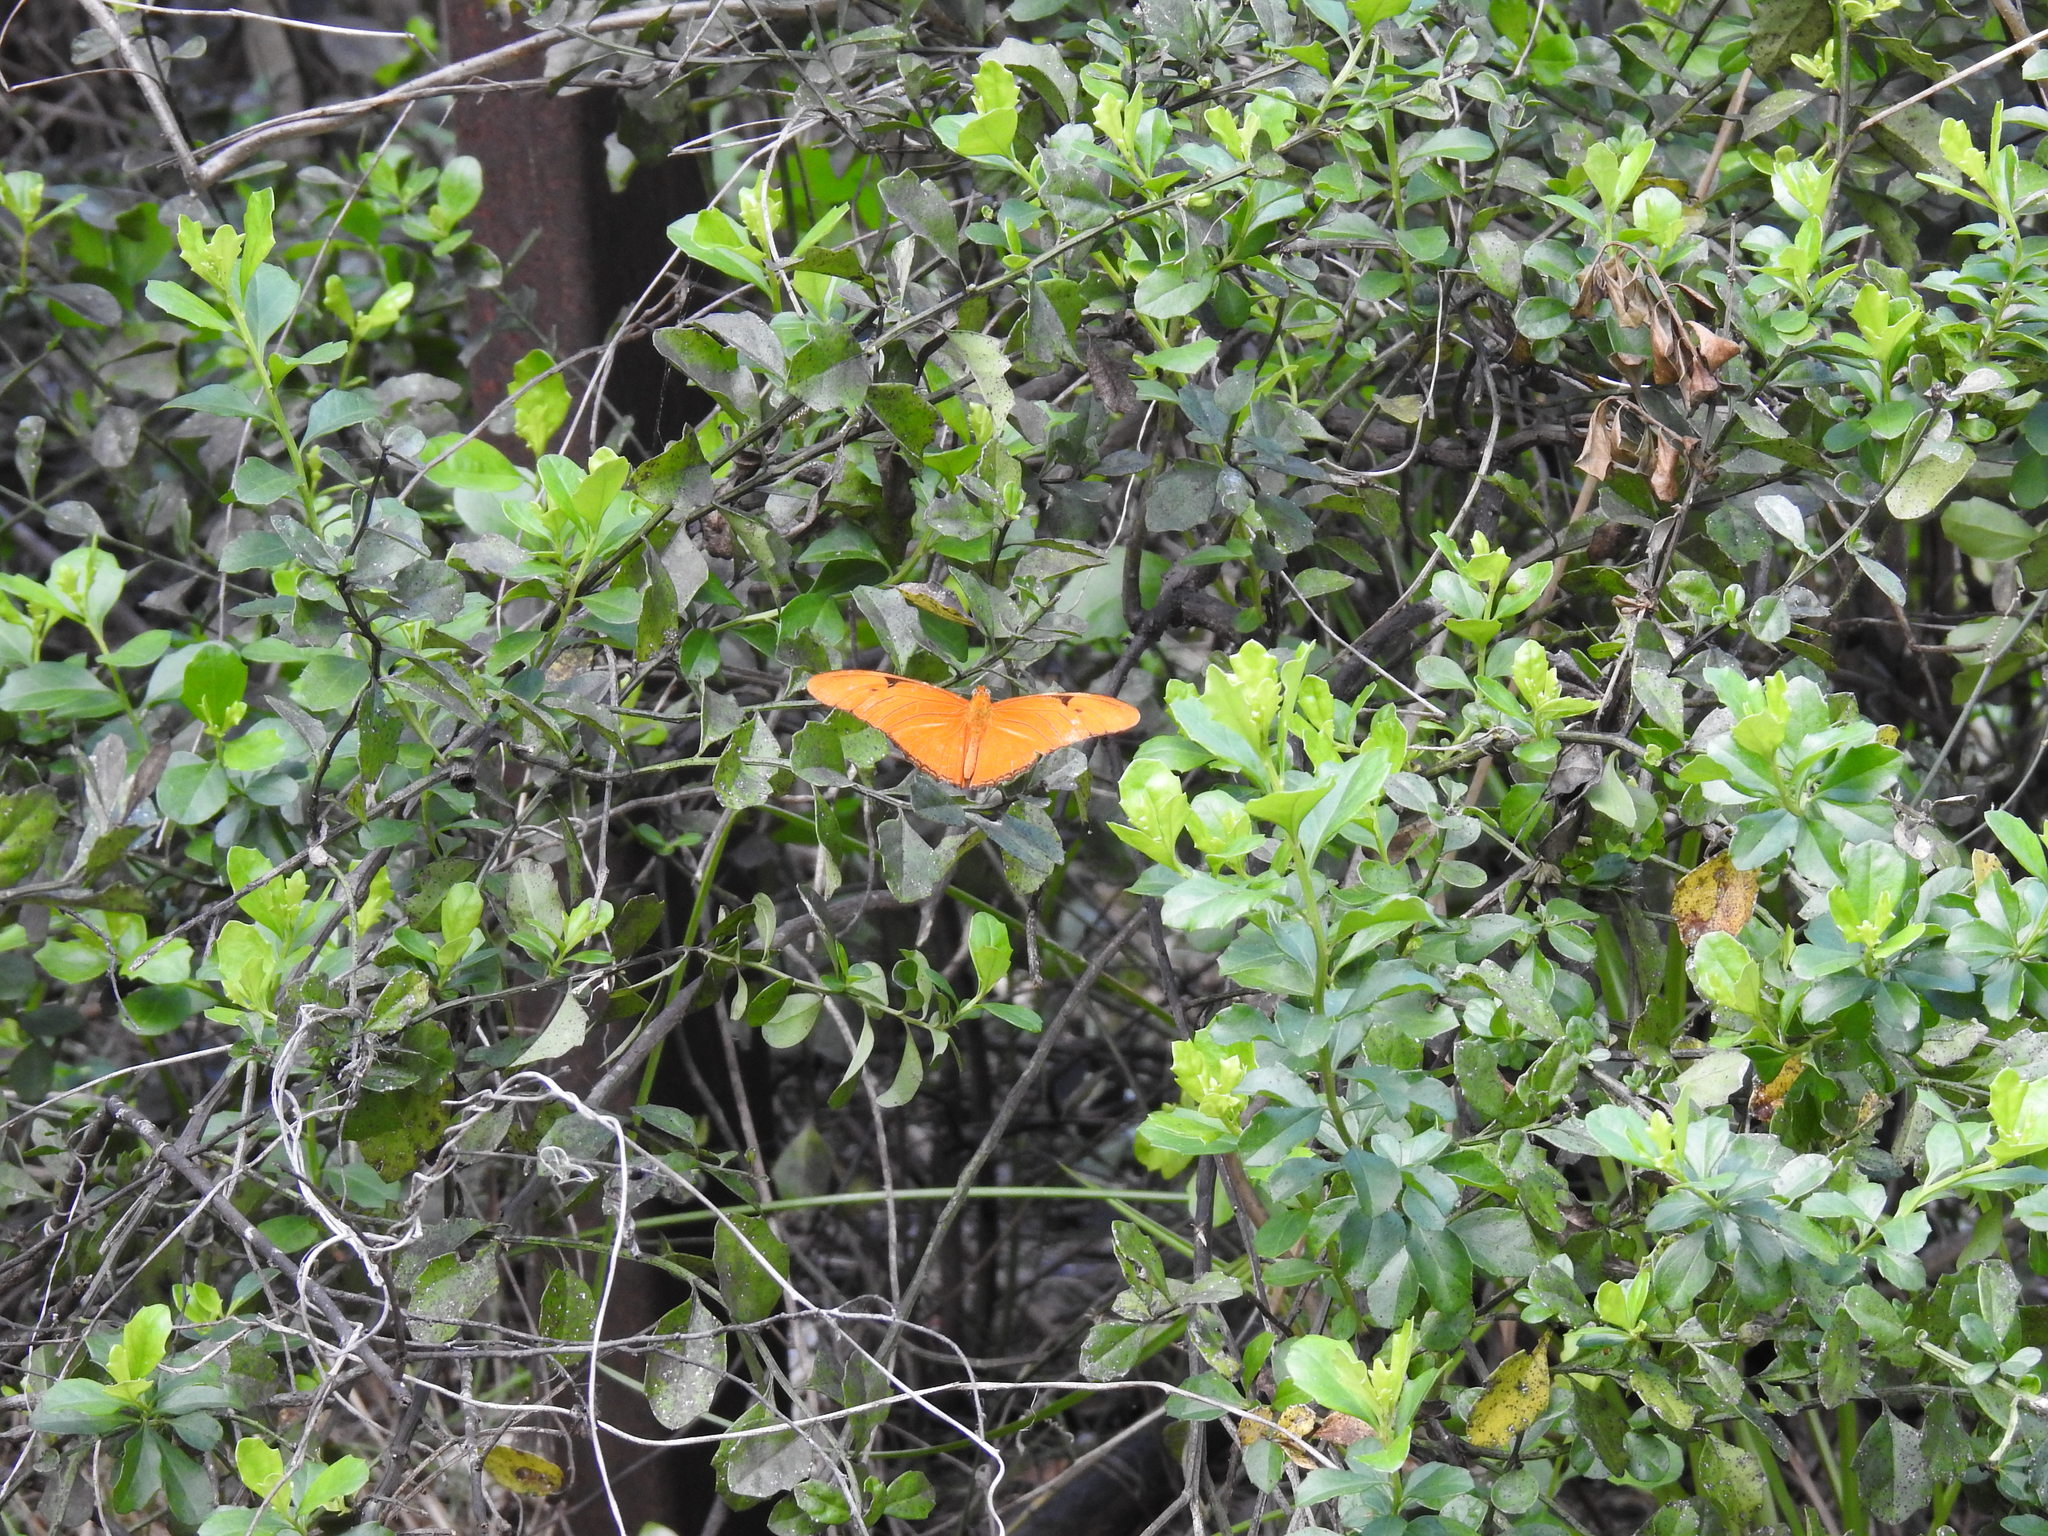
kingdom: Animalia
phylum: Arthropoda
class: Insecta
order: Lepidoptera
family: Nymphalidae
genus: Dryas
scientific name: Dryas iulia
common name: Flambeau
